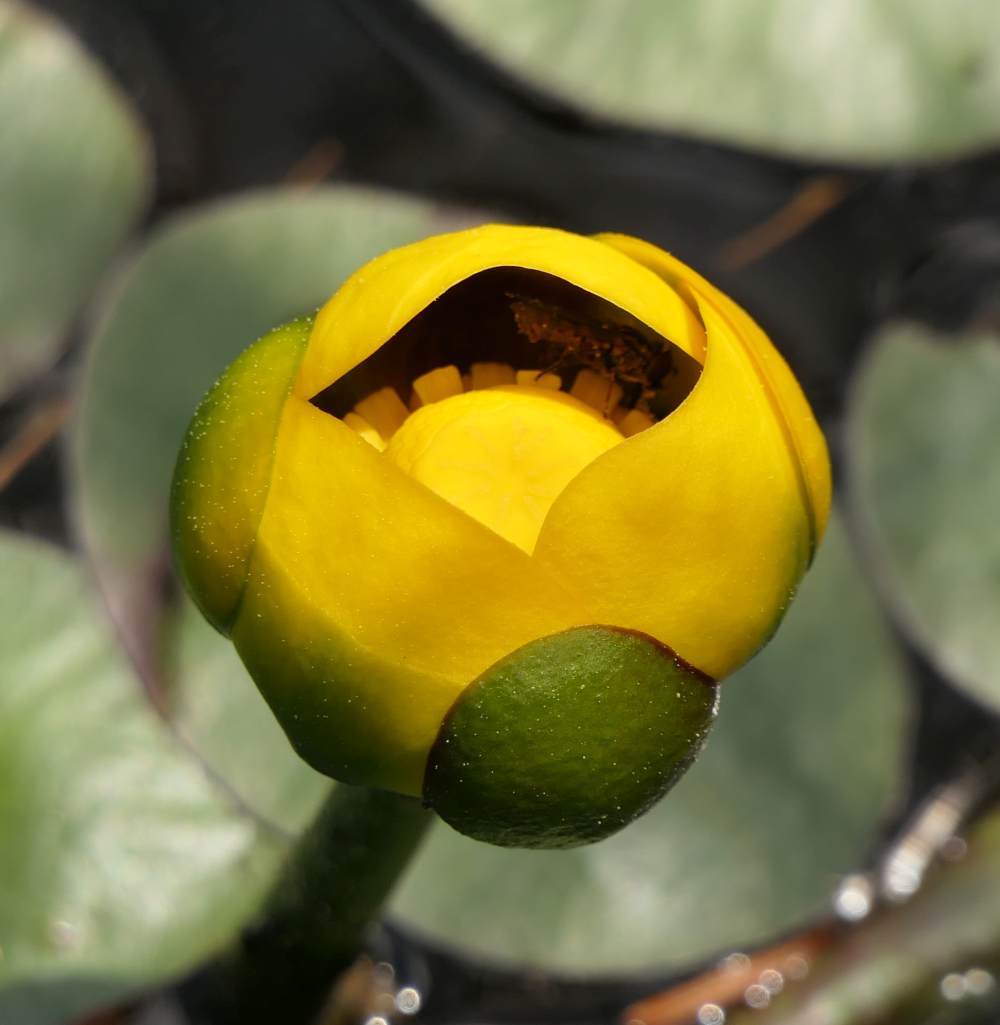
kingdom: Plantae
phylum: Tracheophyta
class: Magnoliopsida
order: Nymphaeales
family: Nymphaeaceae
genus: Nuphar
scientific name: Nuphar variegata
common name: Beaver-root
